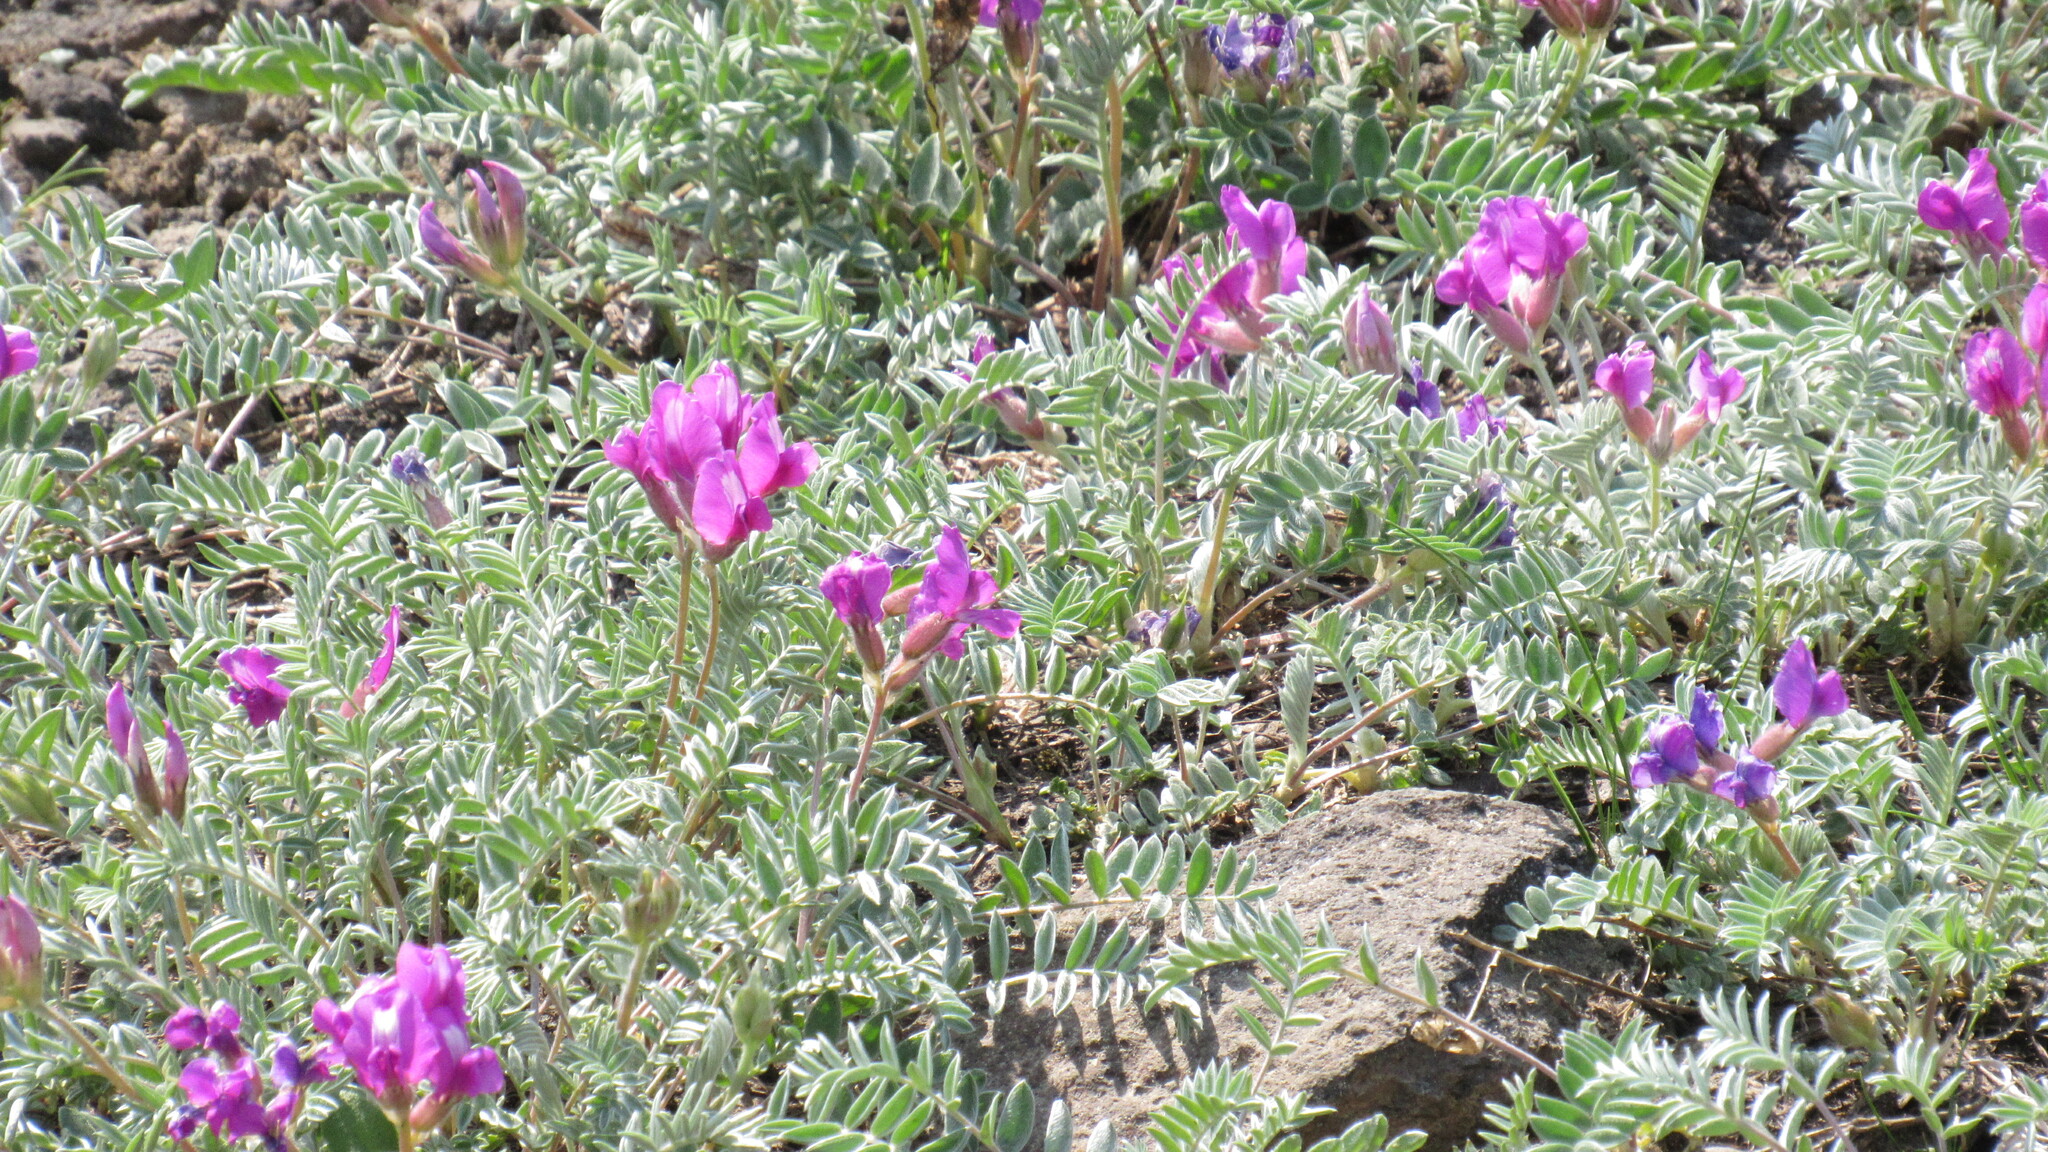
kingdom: Plantae
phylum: Tracheophyta
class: Magnoliopsida
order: Fabales
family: Fabaceae
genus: Oxytropis
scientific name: Oxytropis revoluta
